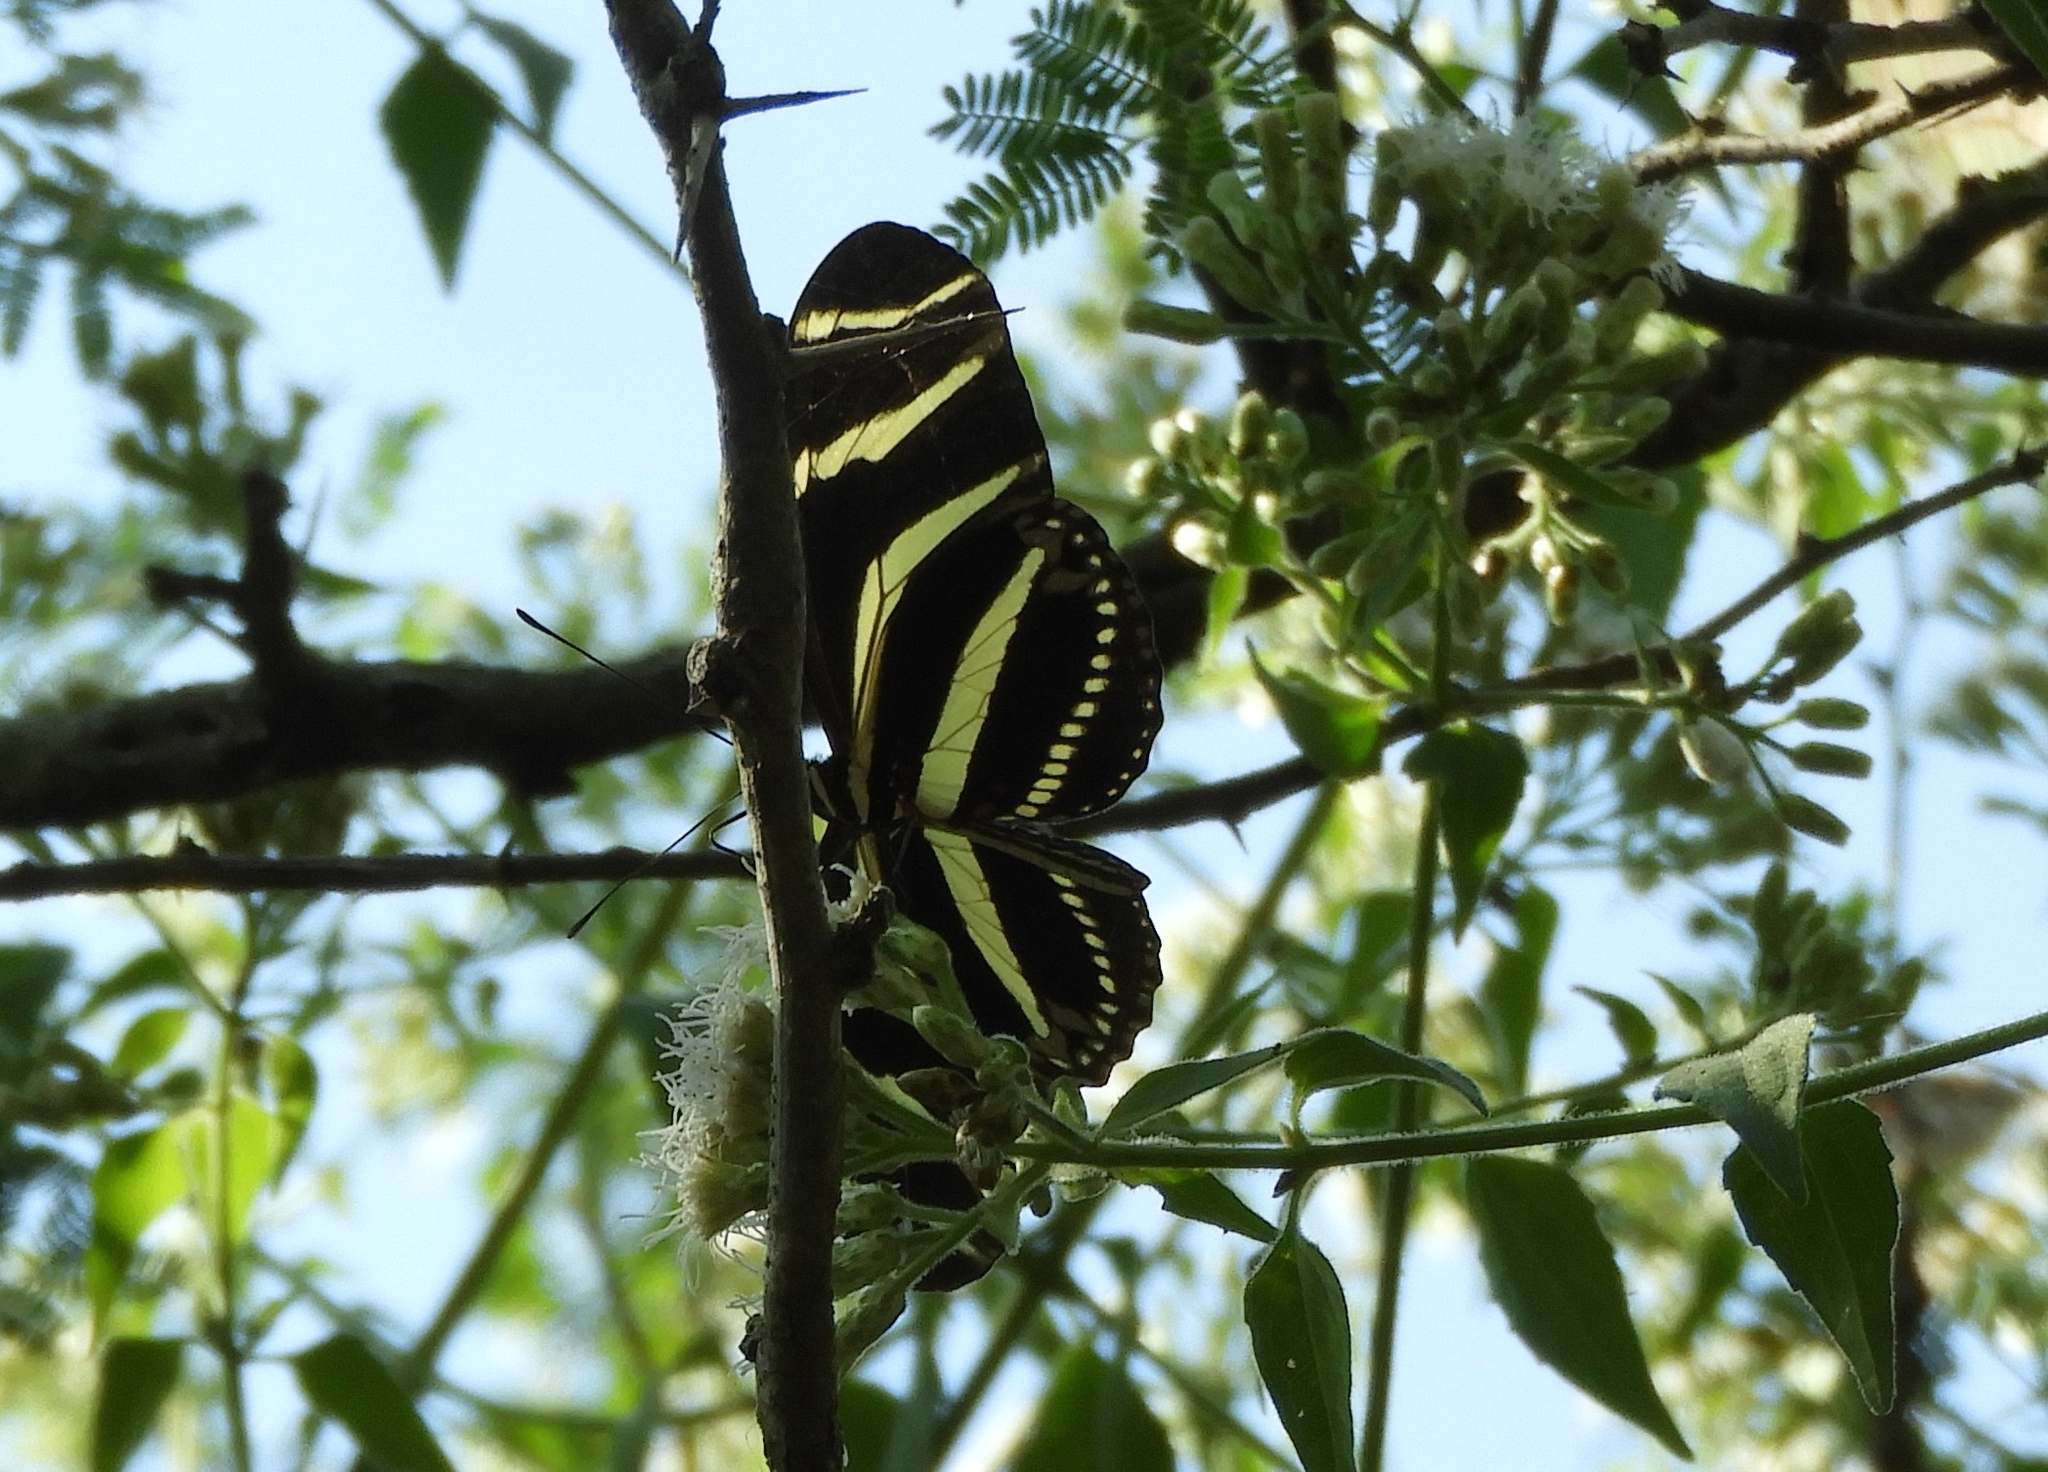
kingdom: Animalia
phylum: Arthropoda
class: Insecta
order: Lepidoptera
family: Nymphalidae
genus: Heliconius
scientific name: Heliconius charithonia
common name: Zebra long wing
